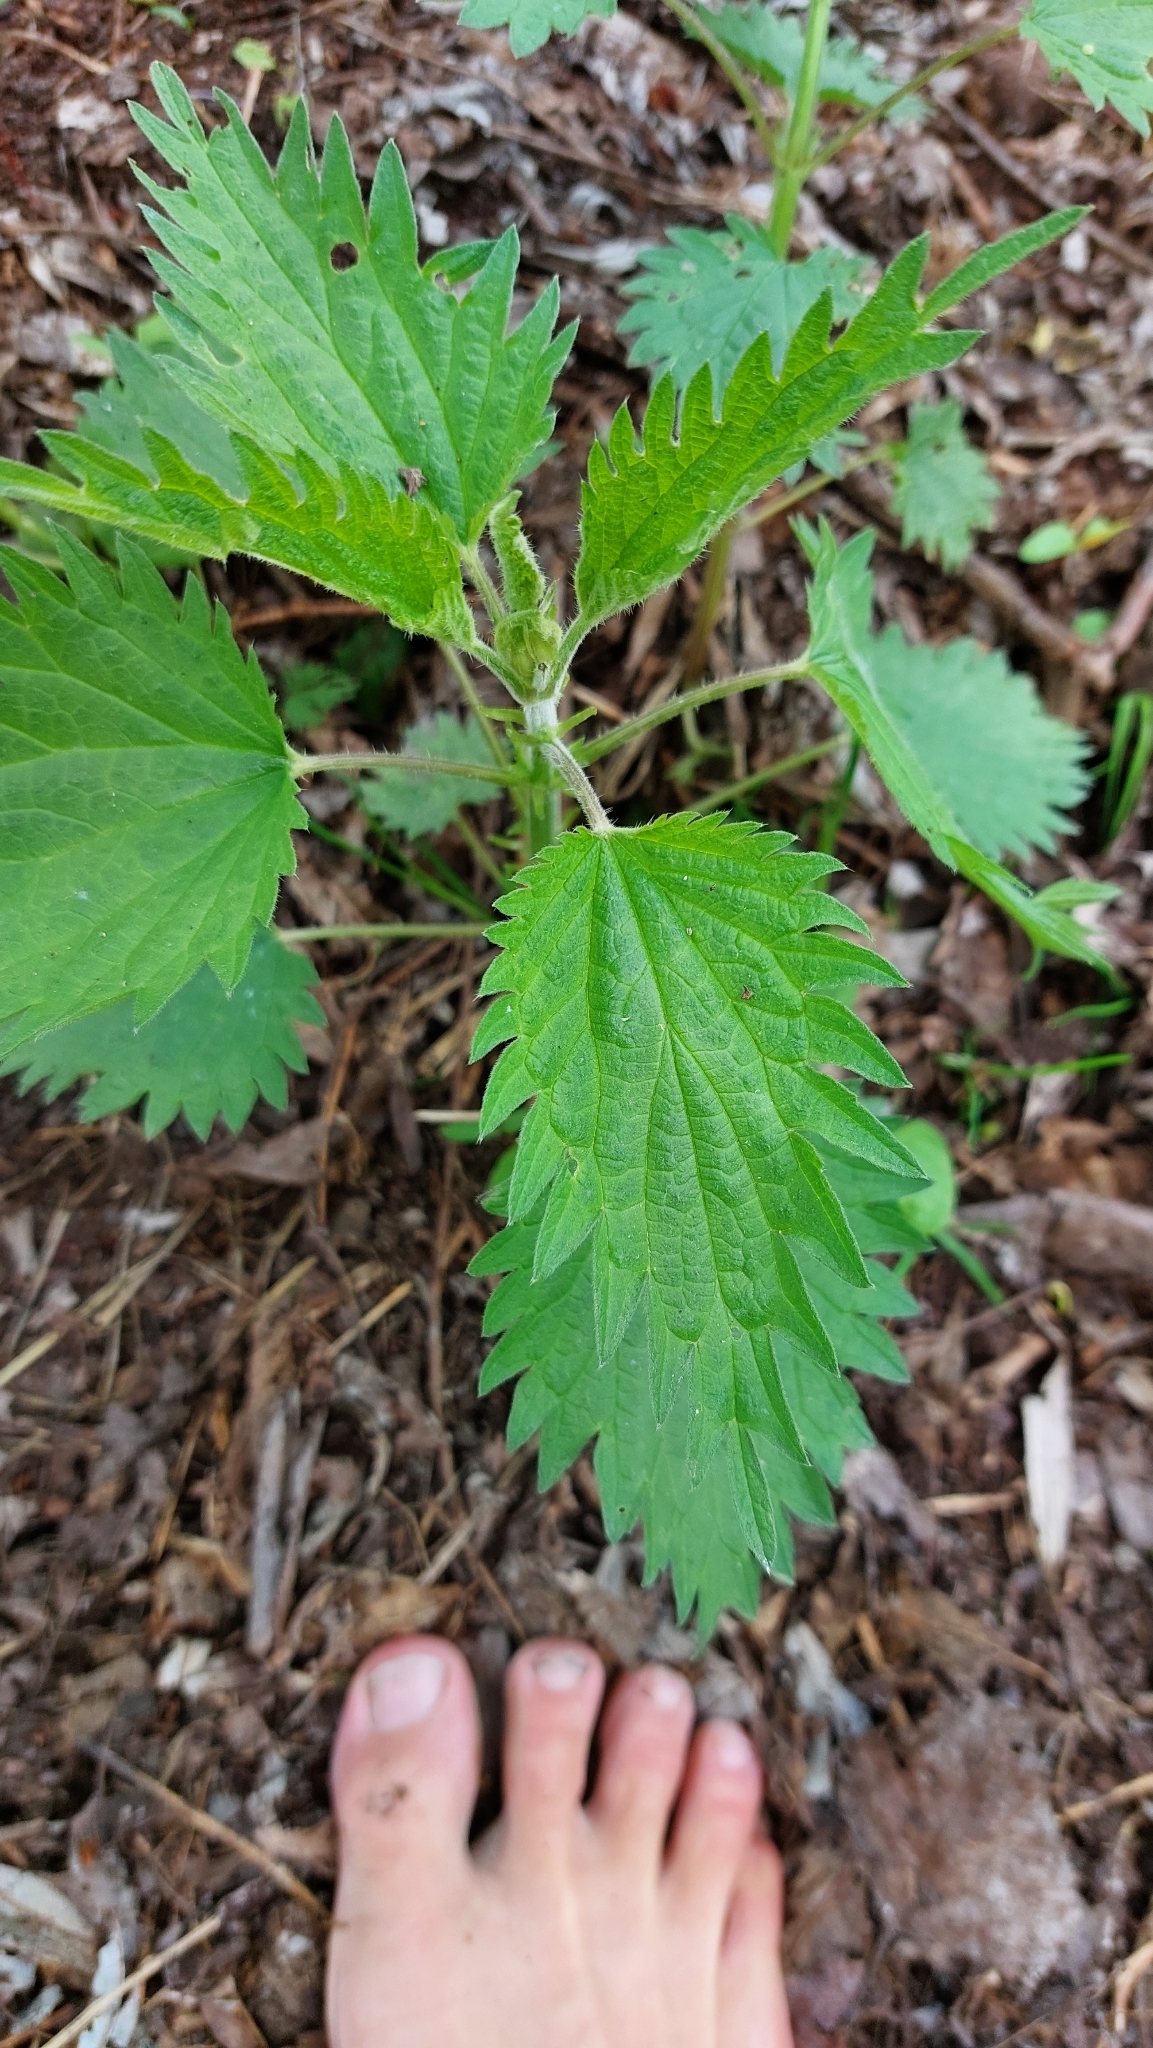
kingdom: Plantae
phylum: Tracheophyta
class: Magnoliopsida
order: Rosales
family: Urticaceae
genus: Urtica
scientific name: Urtica dioica
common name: Common nettle
